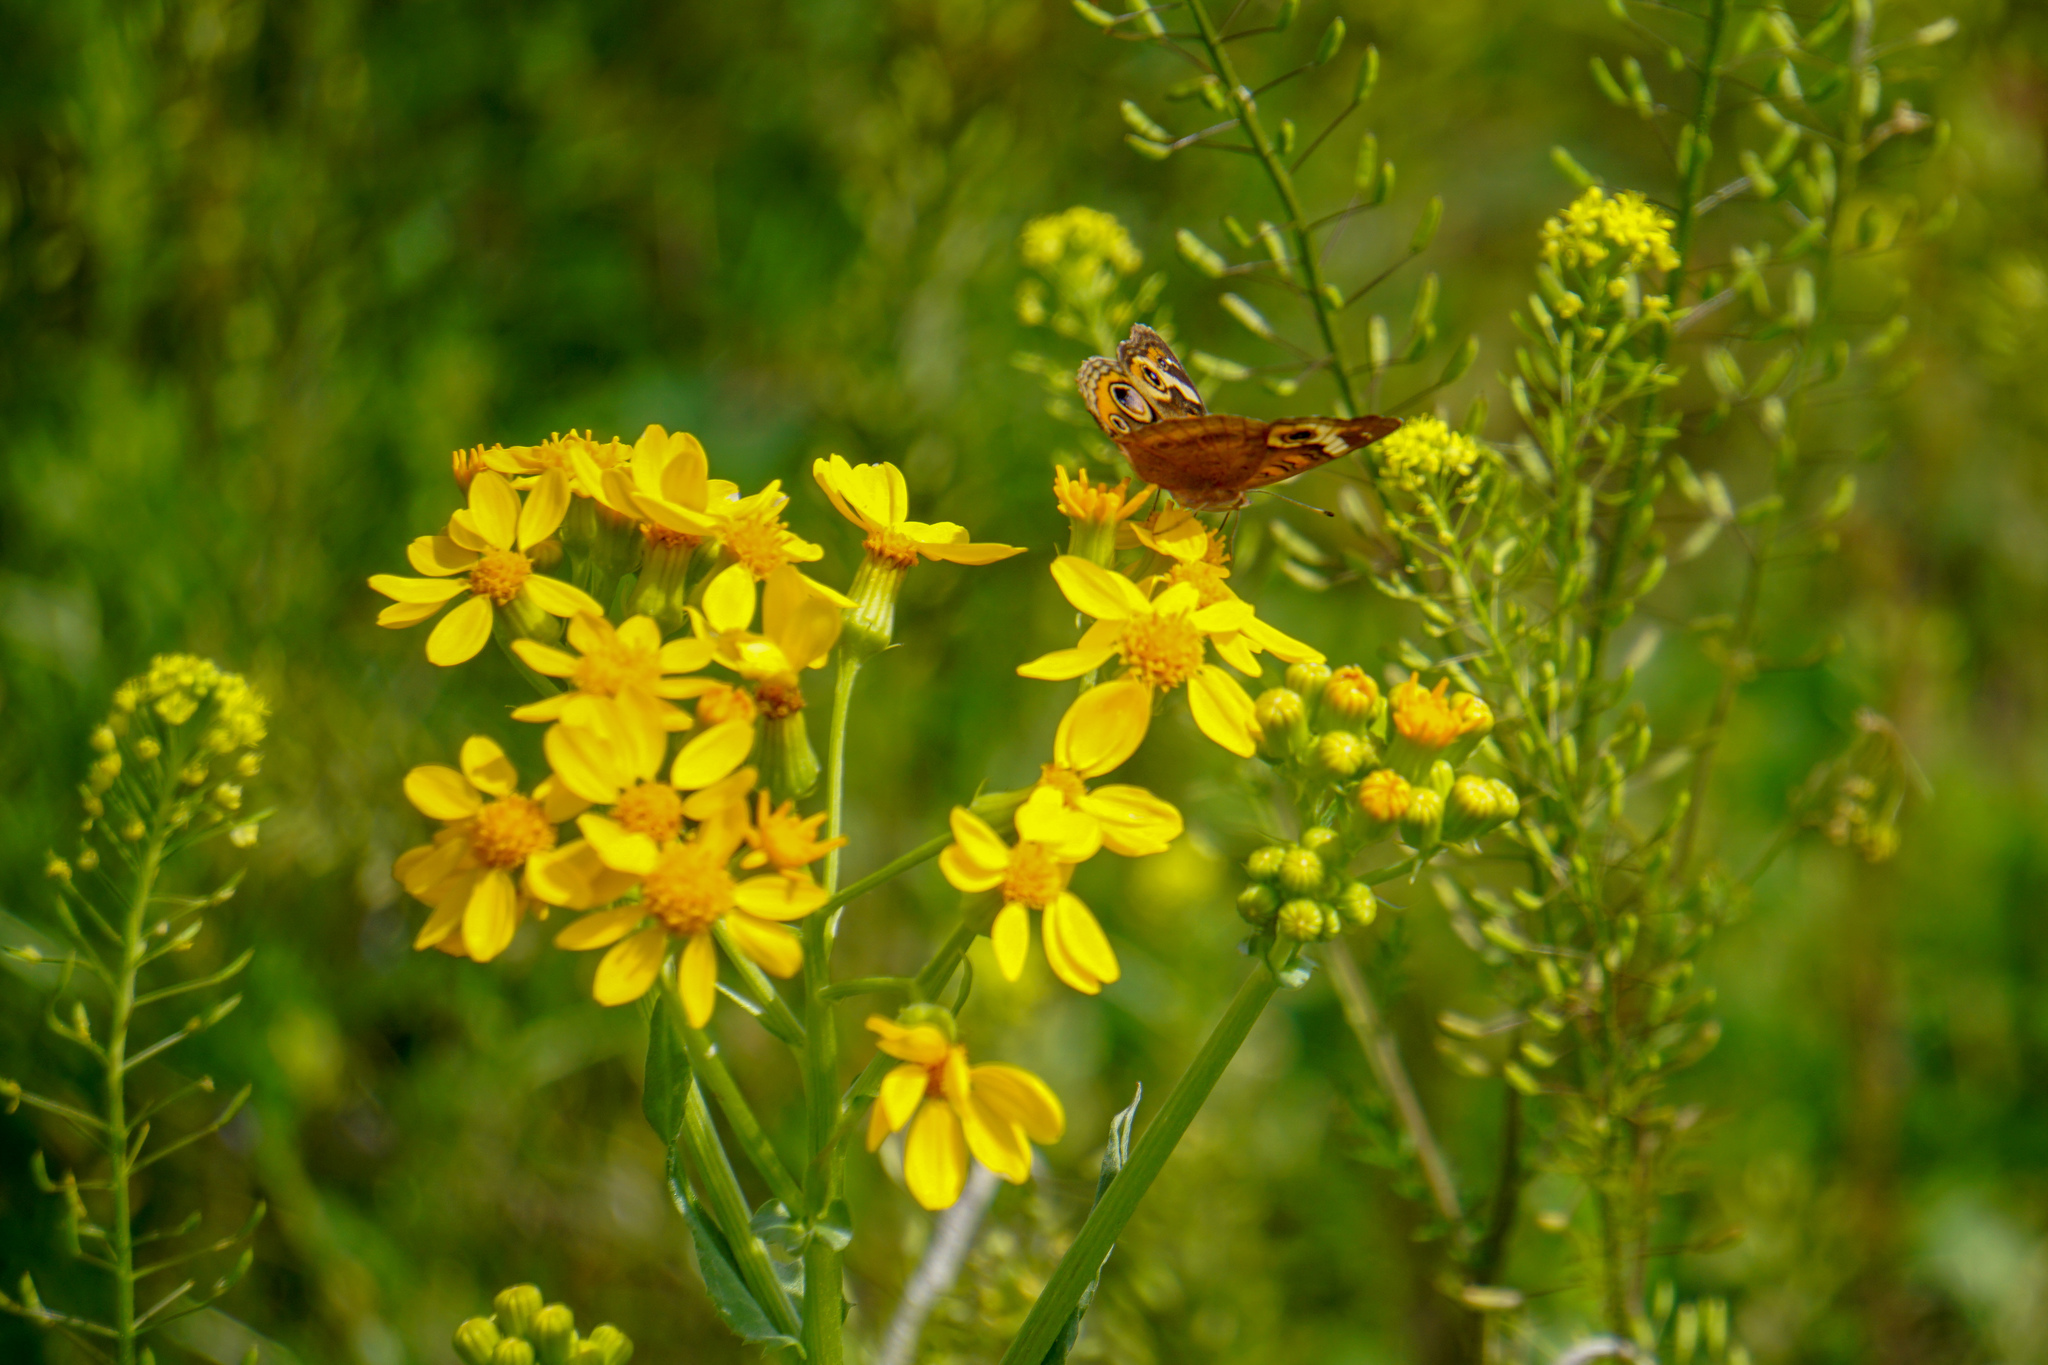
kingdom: Animalia
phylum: Arthropoda
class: Insecta
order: Lepidoptera
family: Nymphalidae
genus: Junonia
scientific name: Junonia coenia
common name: Common buckeye
